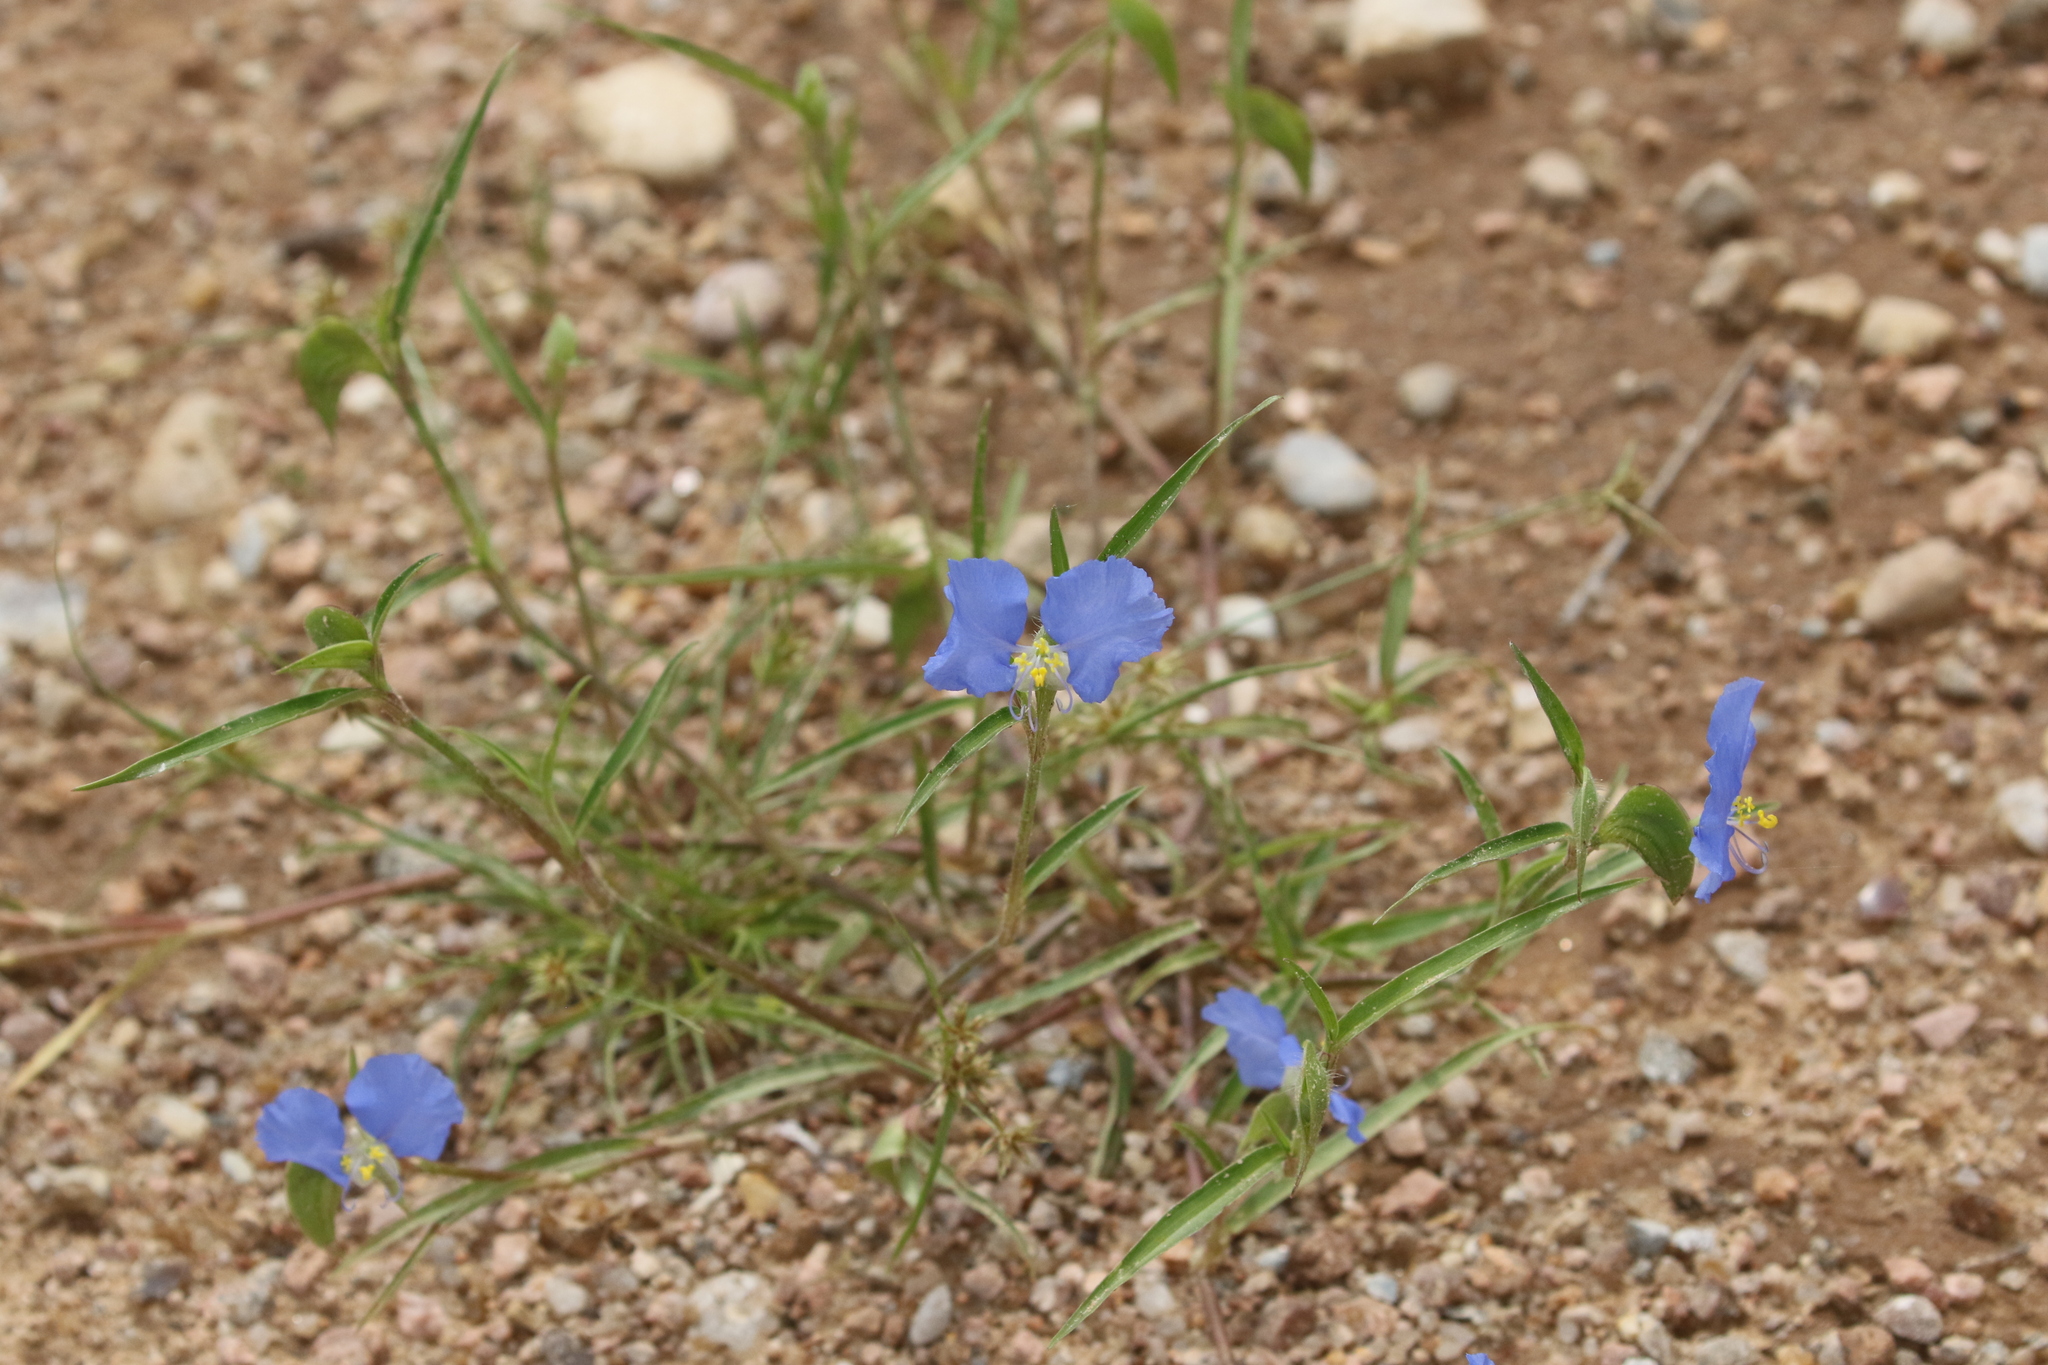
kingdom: Plantae
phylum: Tracheophyta
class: Liliopsida
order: Commelinales
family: Commelinaceae
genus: Commelina
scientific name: Commelina erecta
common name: Blousel blommetjie
